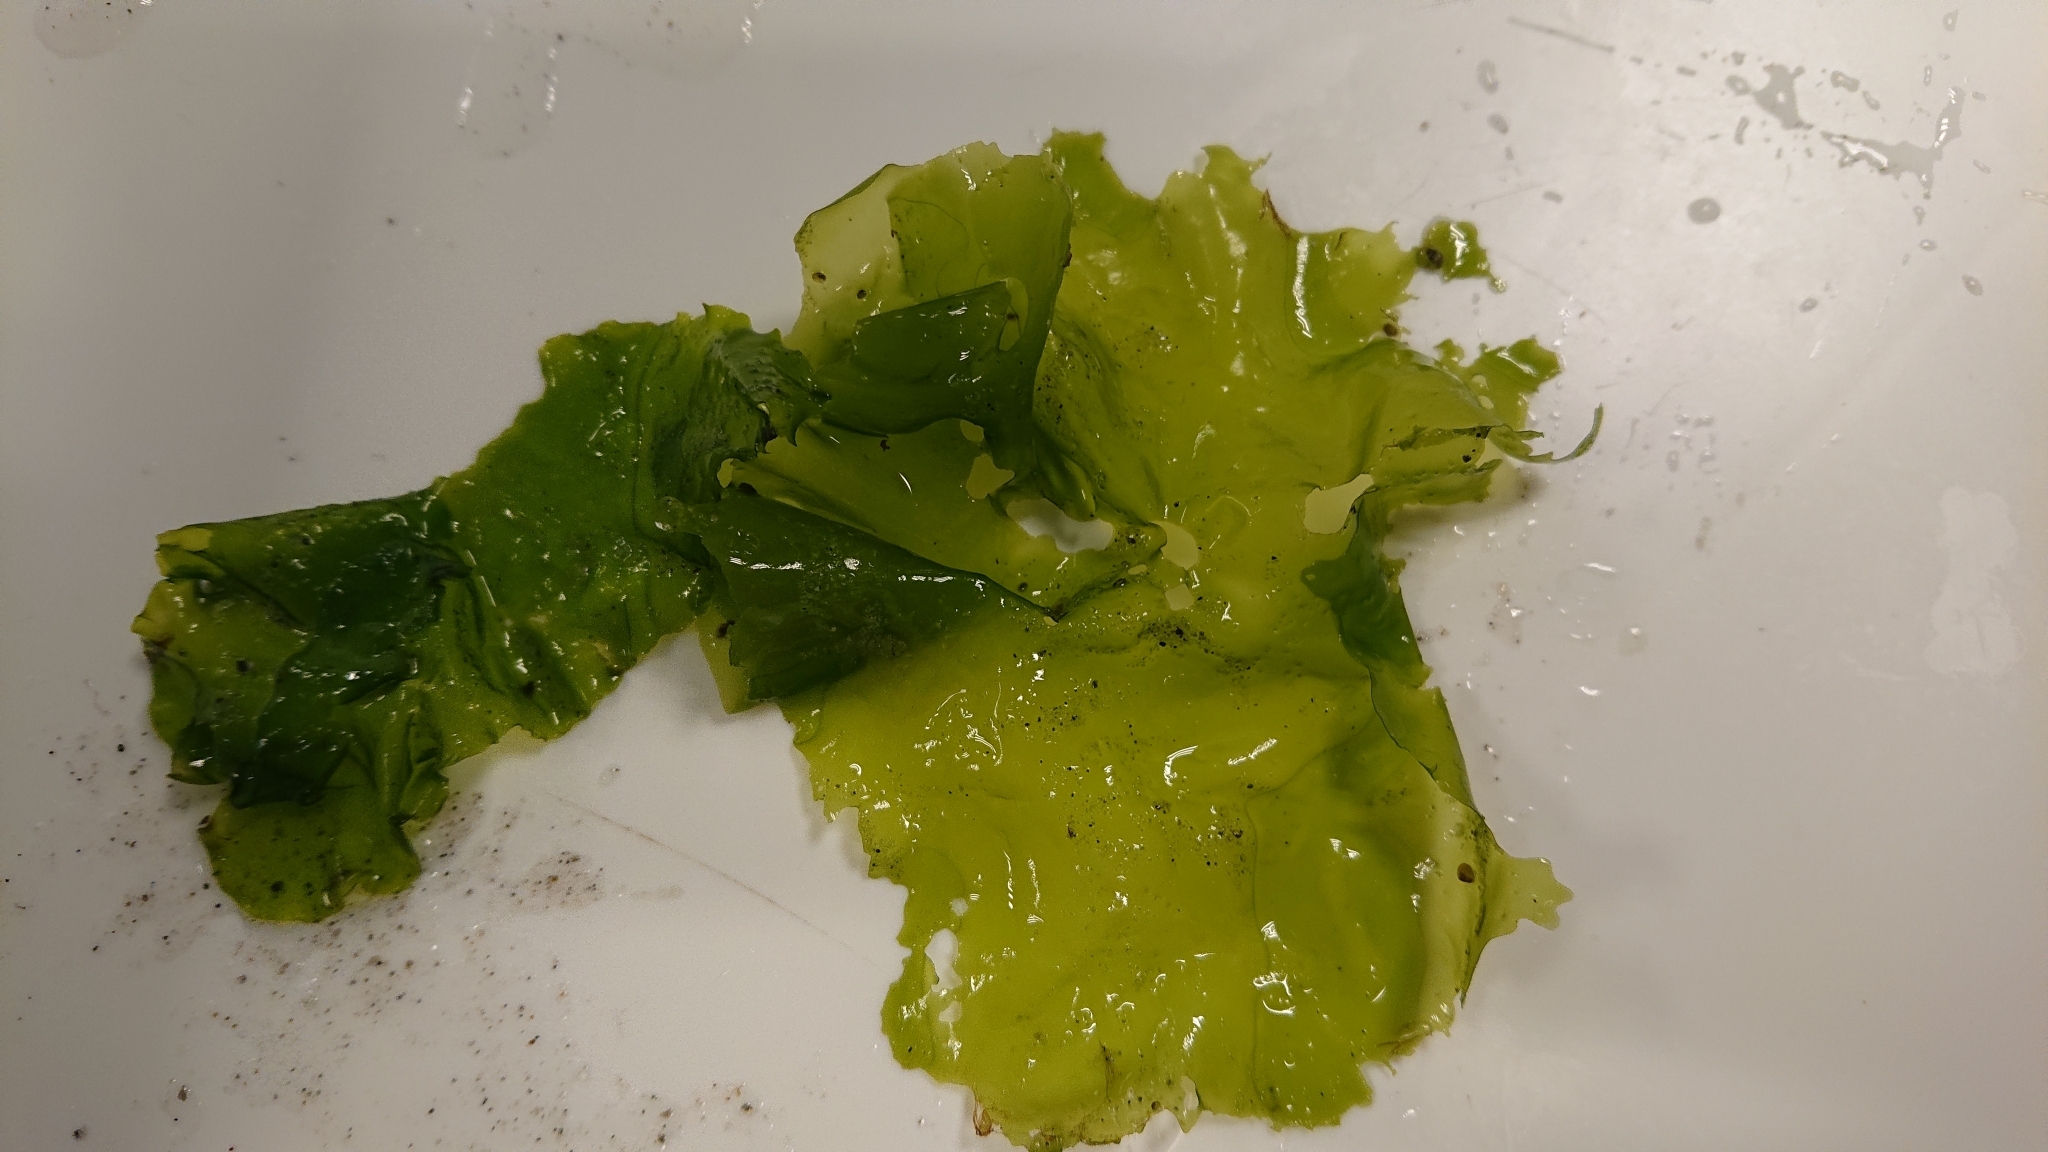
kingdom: Plantae
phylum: Chlorophyta
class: Ulvophyceae
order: Ulvales
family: Ulvaceae
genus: Ulva
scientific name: Ulva lactuca
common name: Sea lettuce
